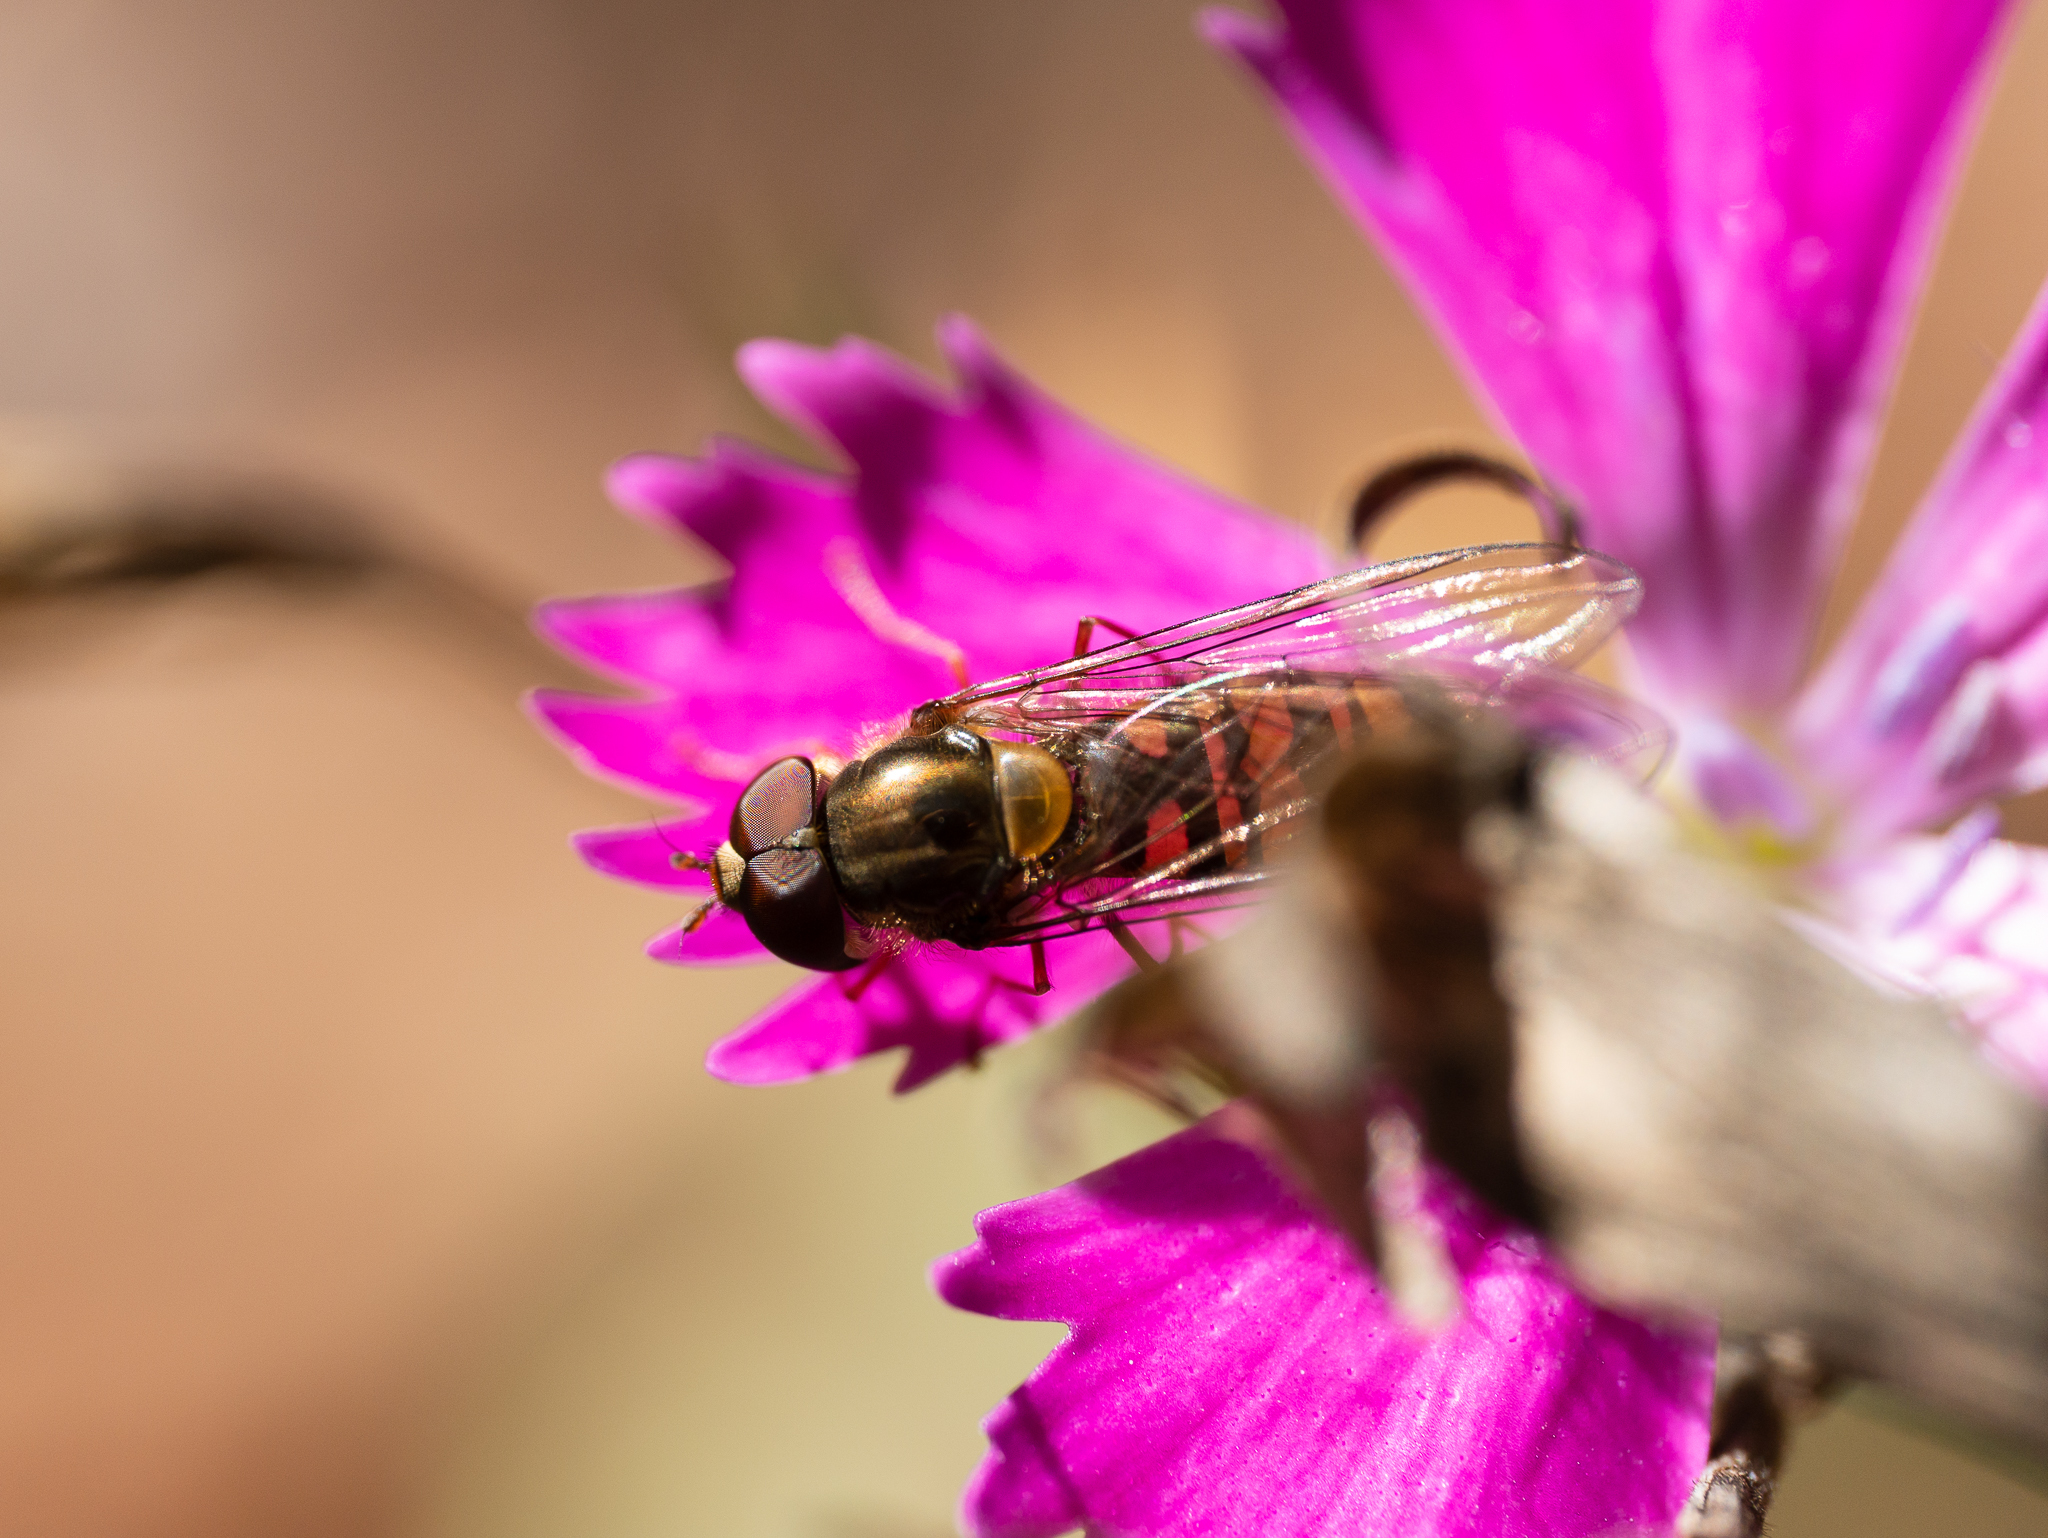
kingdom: Animalia
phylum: Arthropoda
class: Insecta
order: Diptera
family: Syrphidae
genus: Episyrphus
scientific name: Episyrphus balteatus
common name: Marmalade hoverfly
